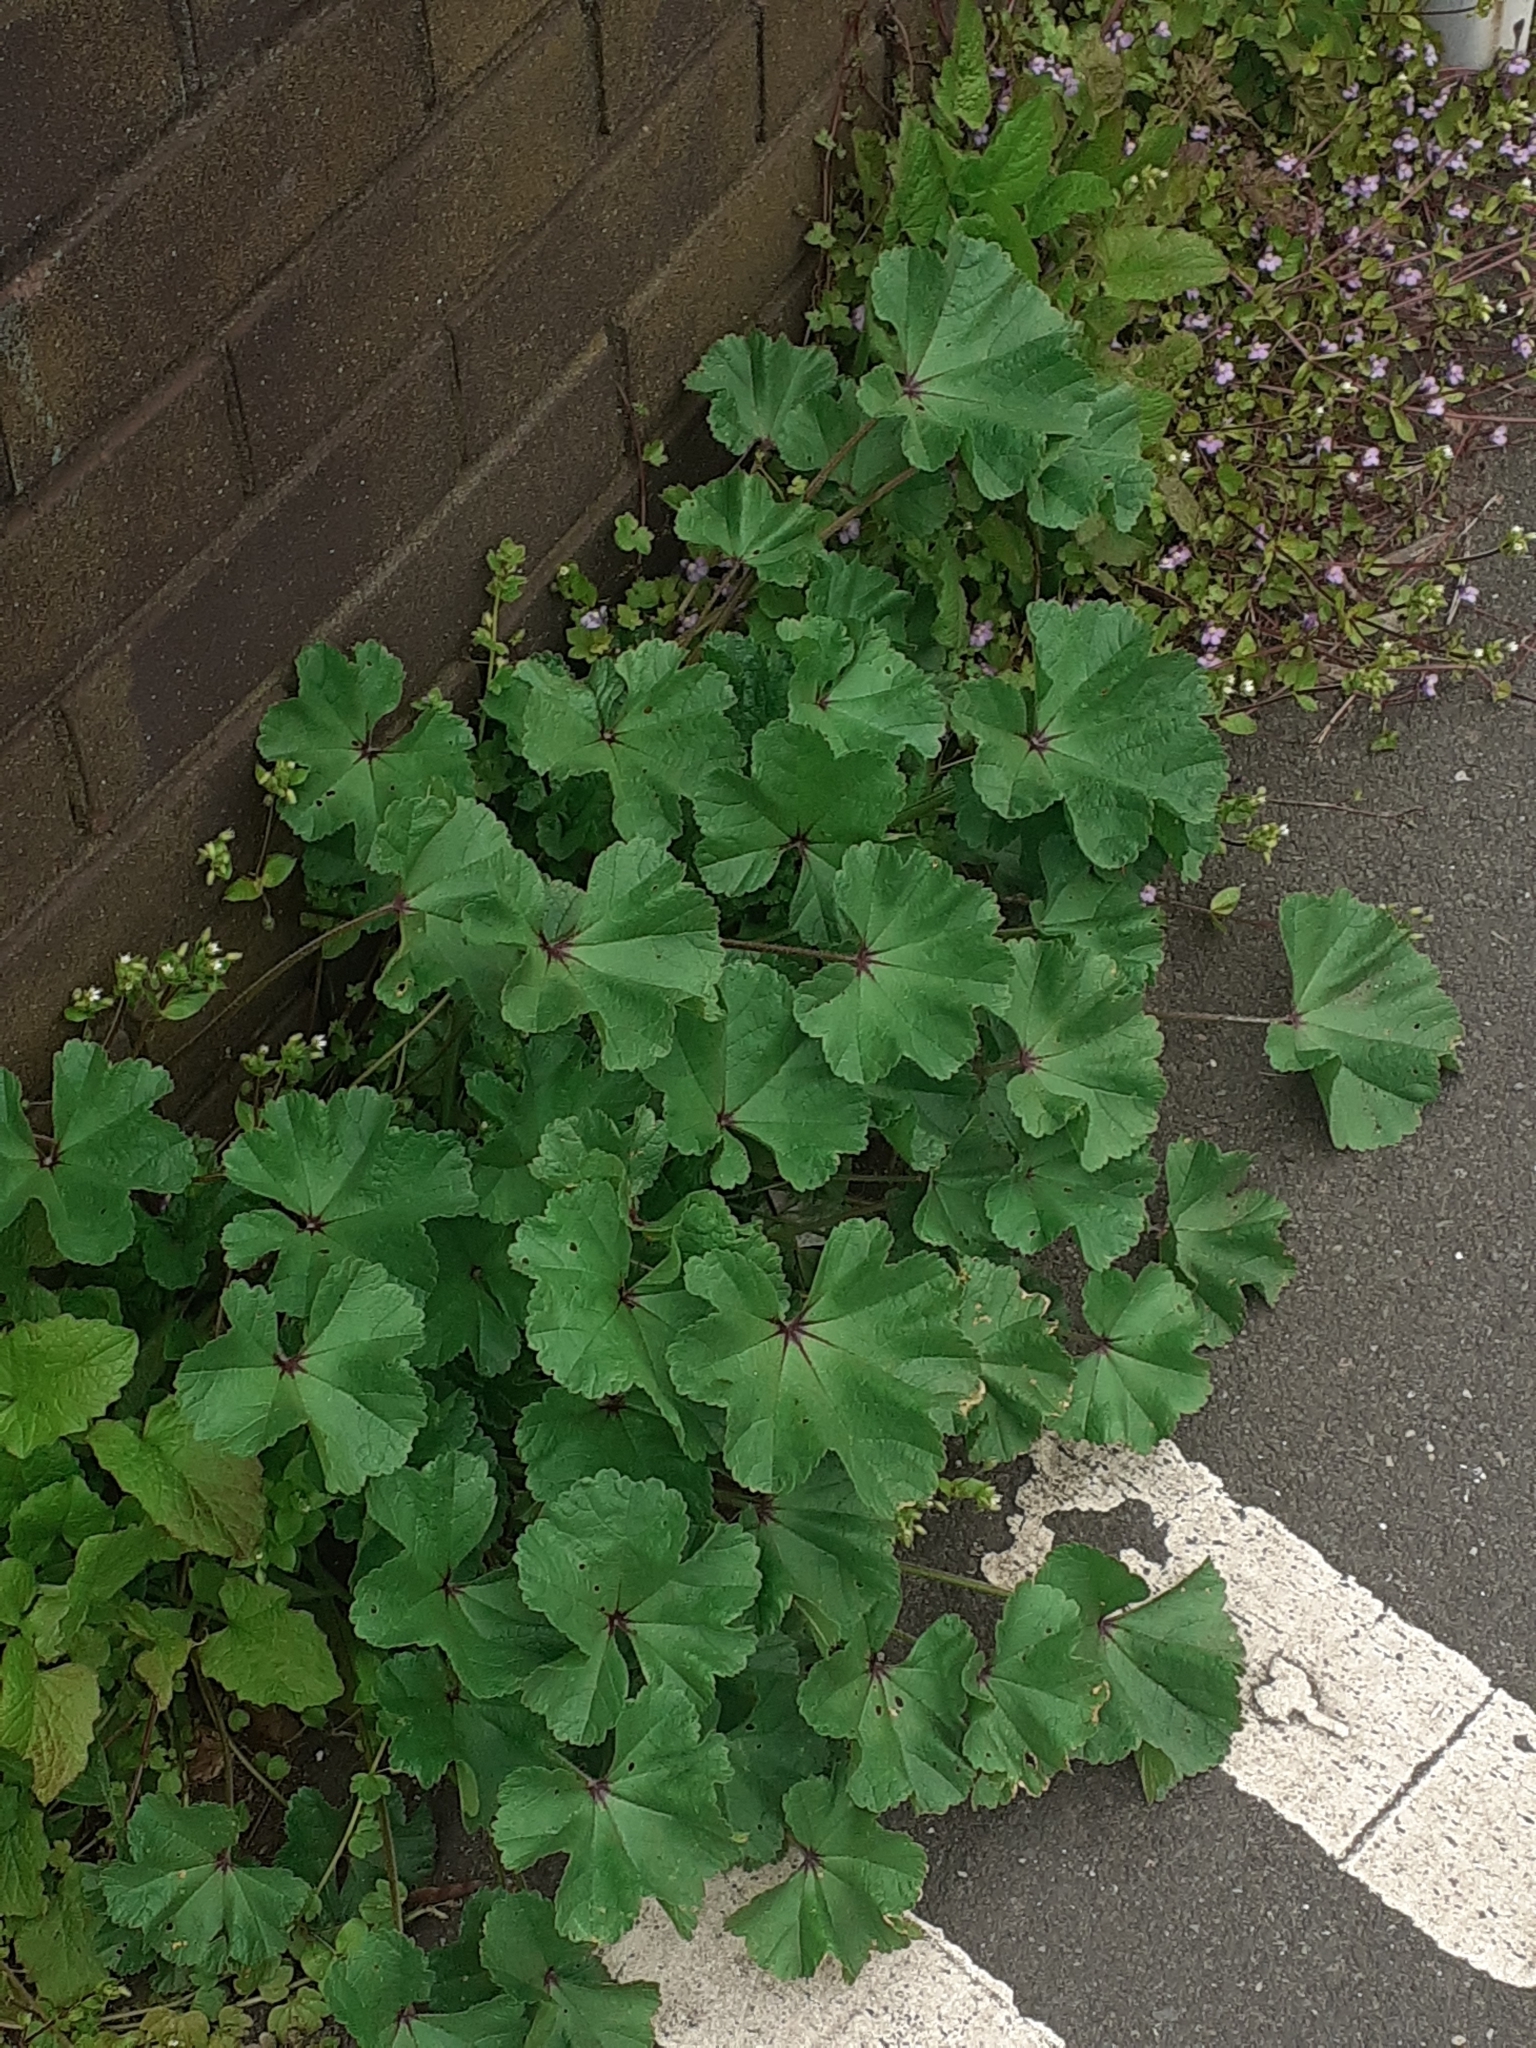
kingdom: Plantae
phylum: Tracheophyta
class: Magnoliopsida
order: Malvales
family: Malvaceae
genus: Malva
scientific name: Malva sylvestris
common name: Common mallow
